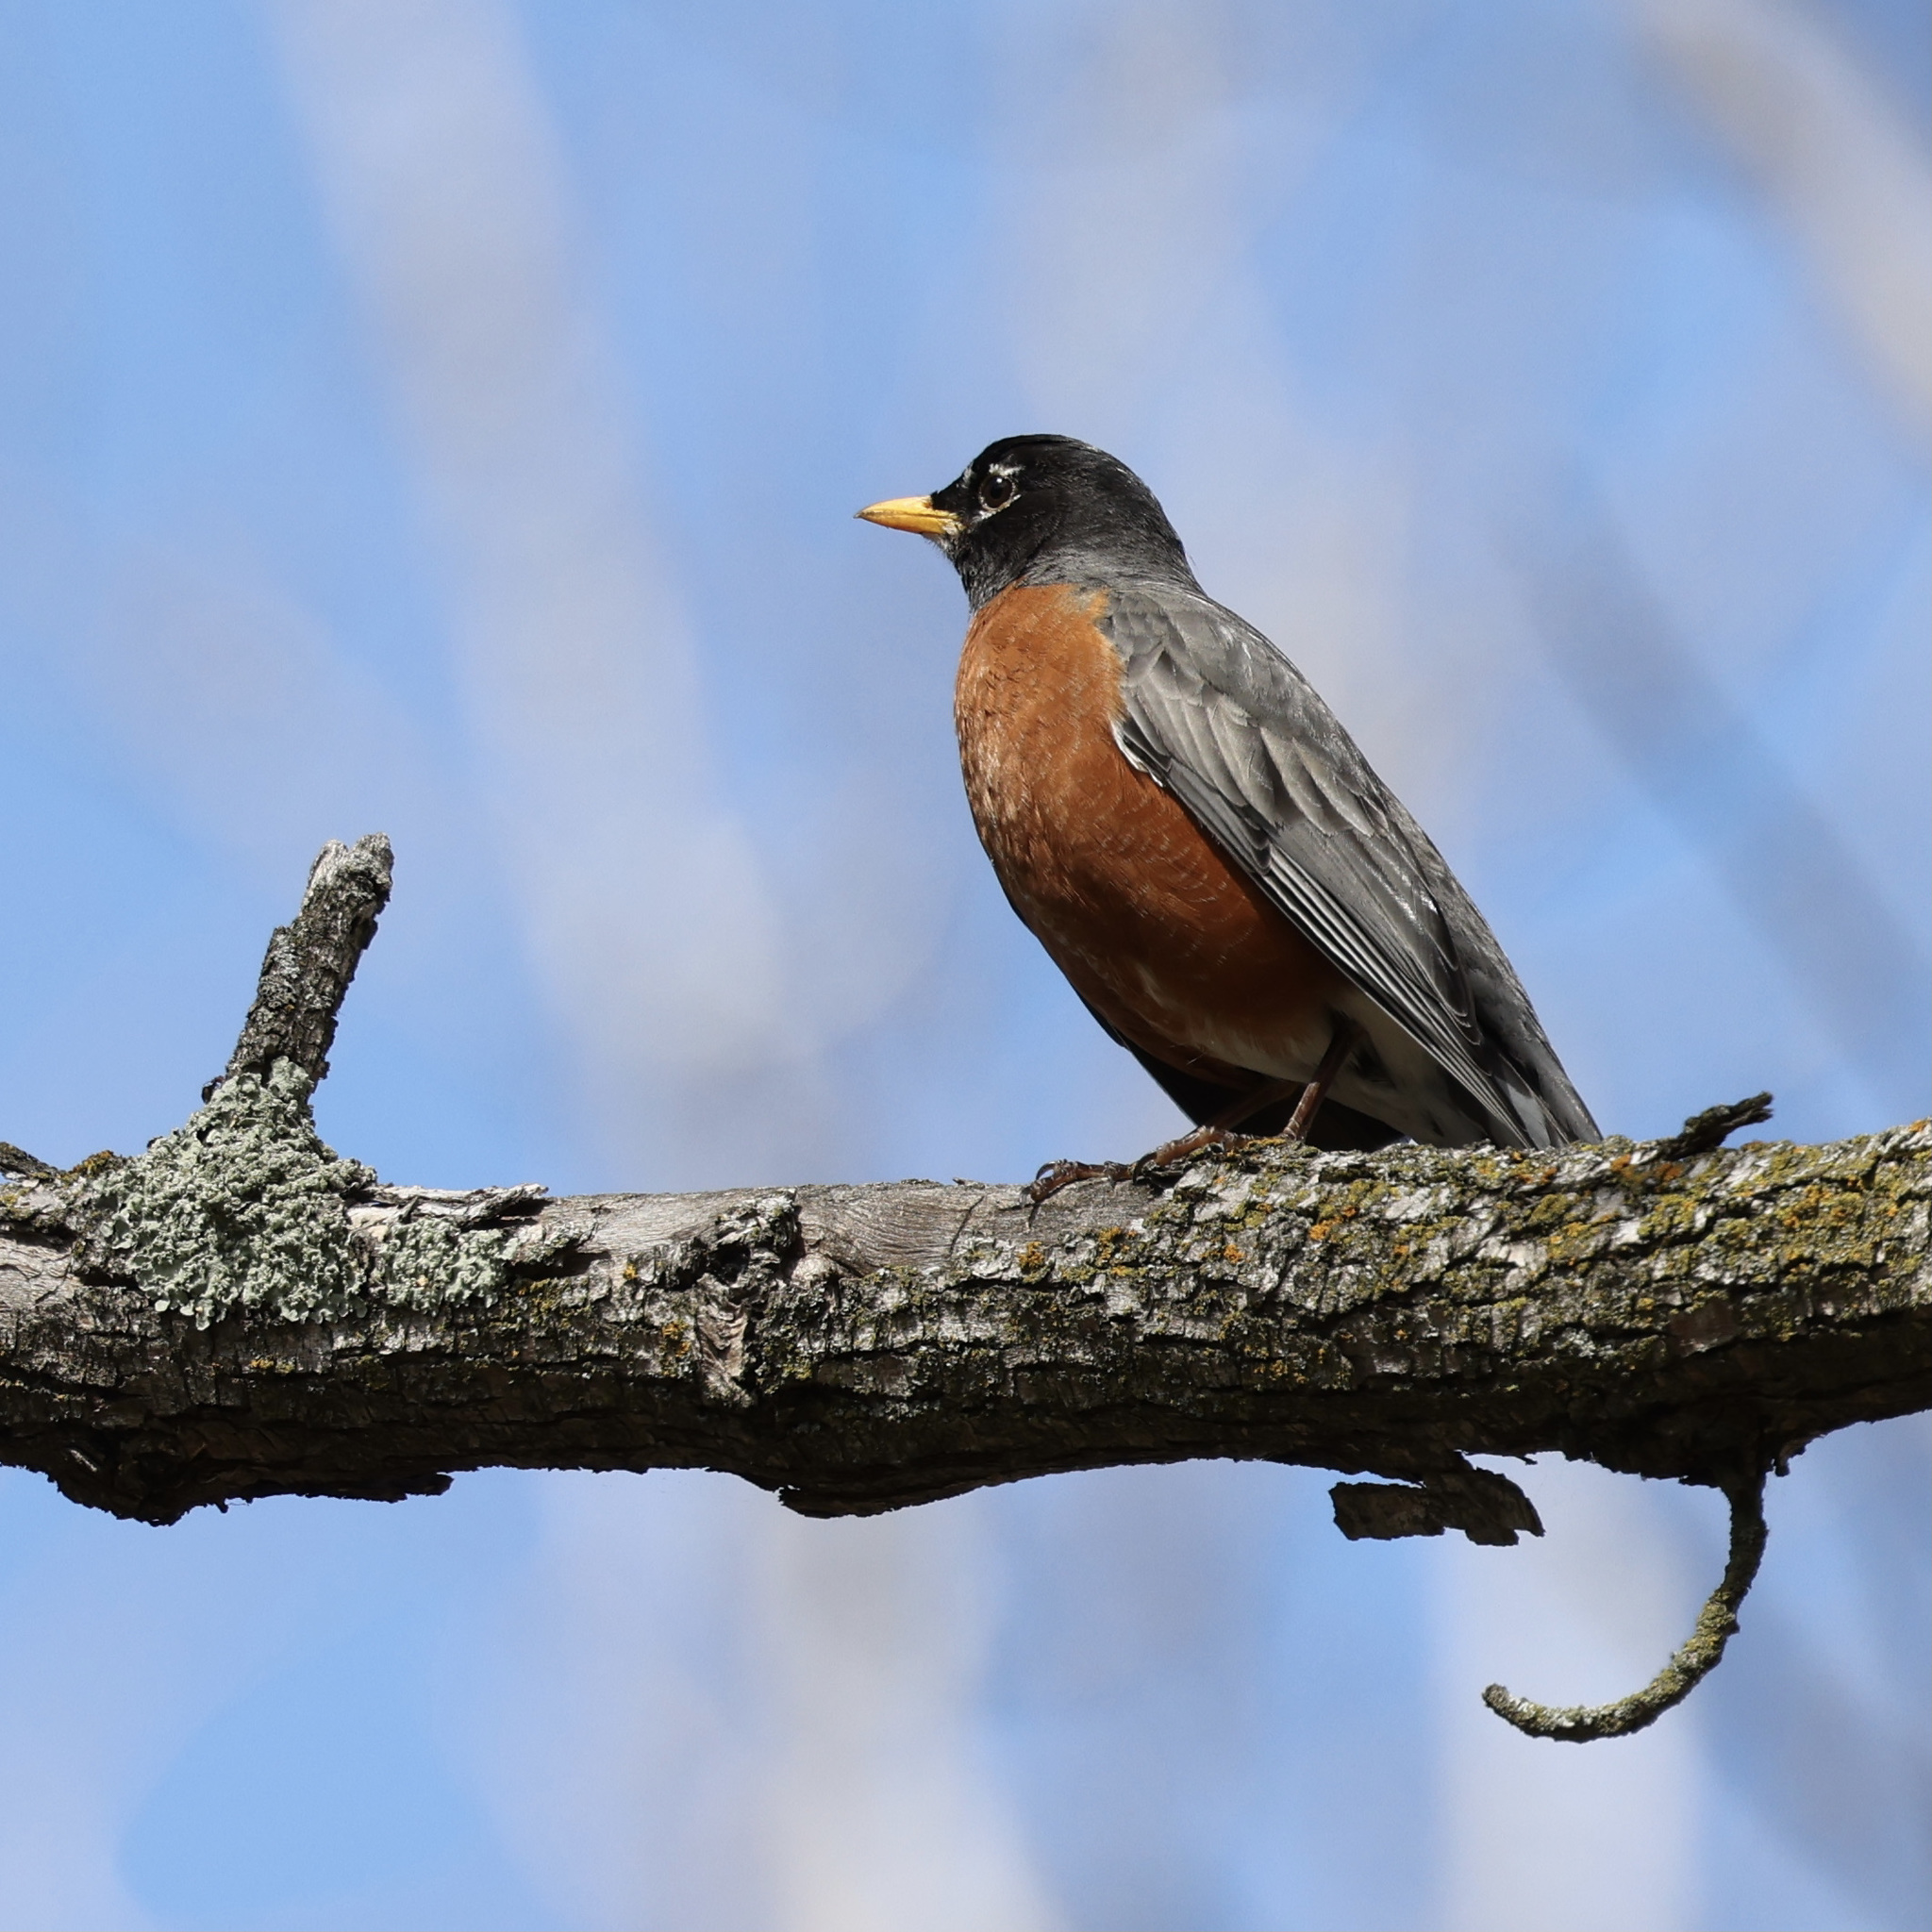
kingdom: Animalia
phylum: Chordata
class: Aves
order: Passeriformes
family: Turdidae
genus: Turdus
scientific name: Turdus migratorius
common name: American robin
